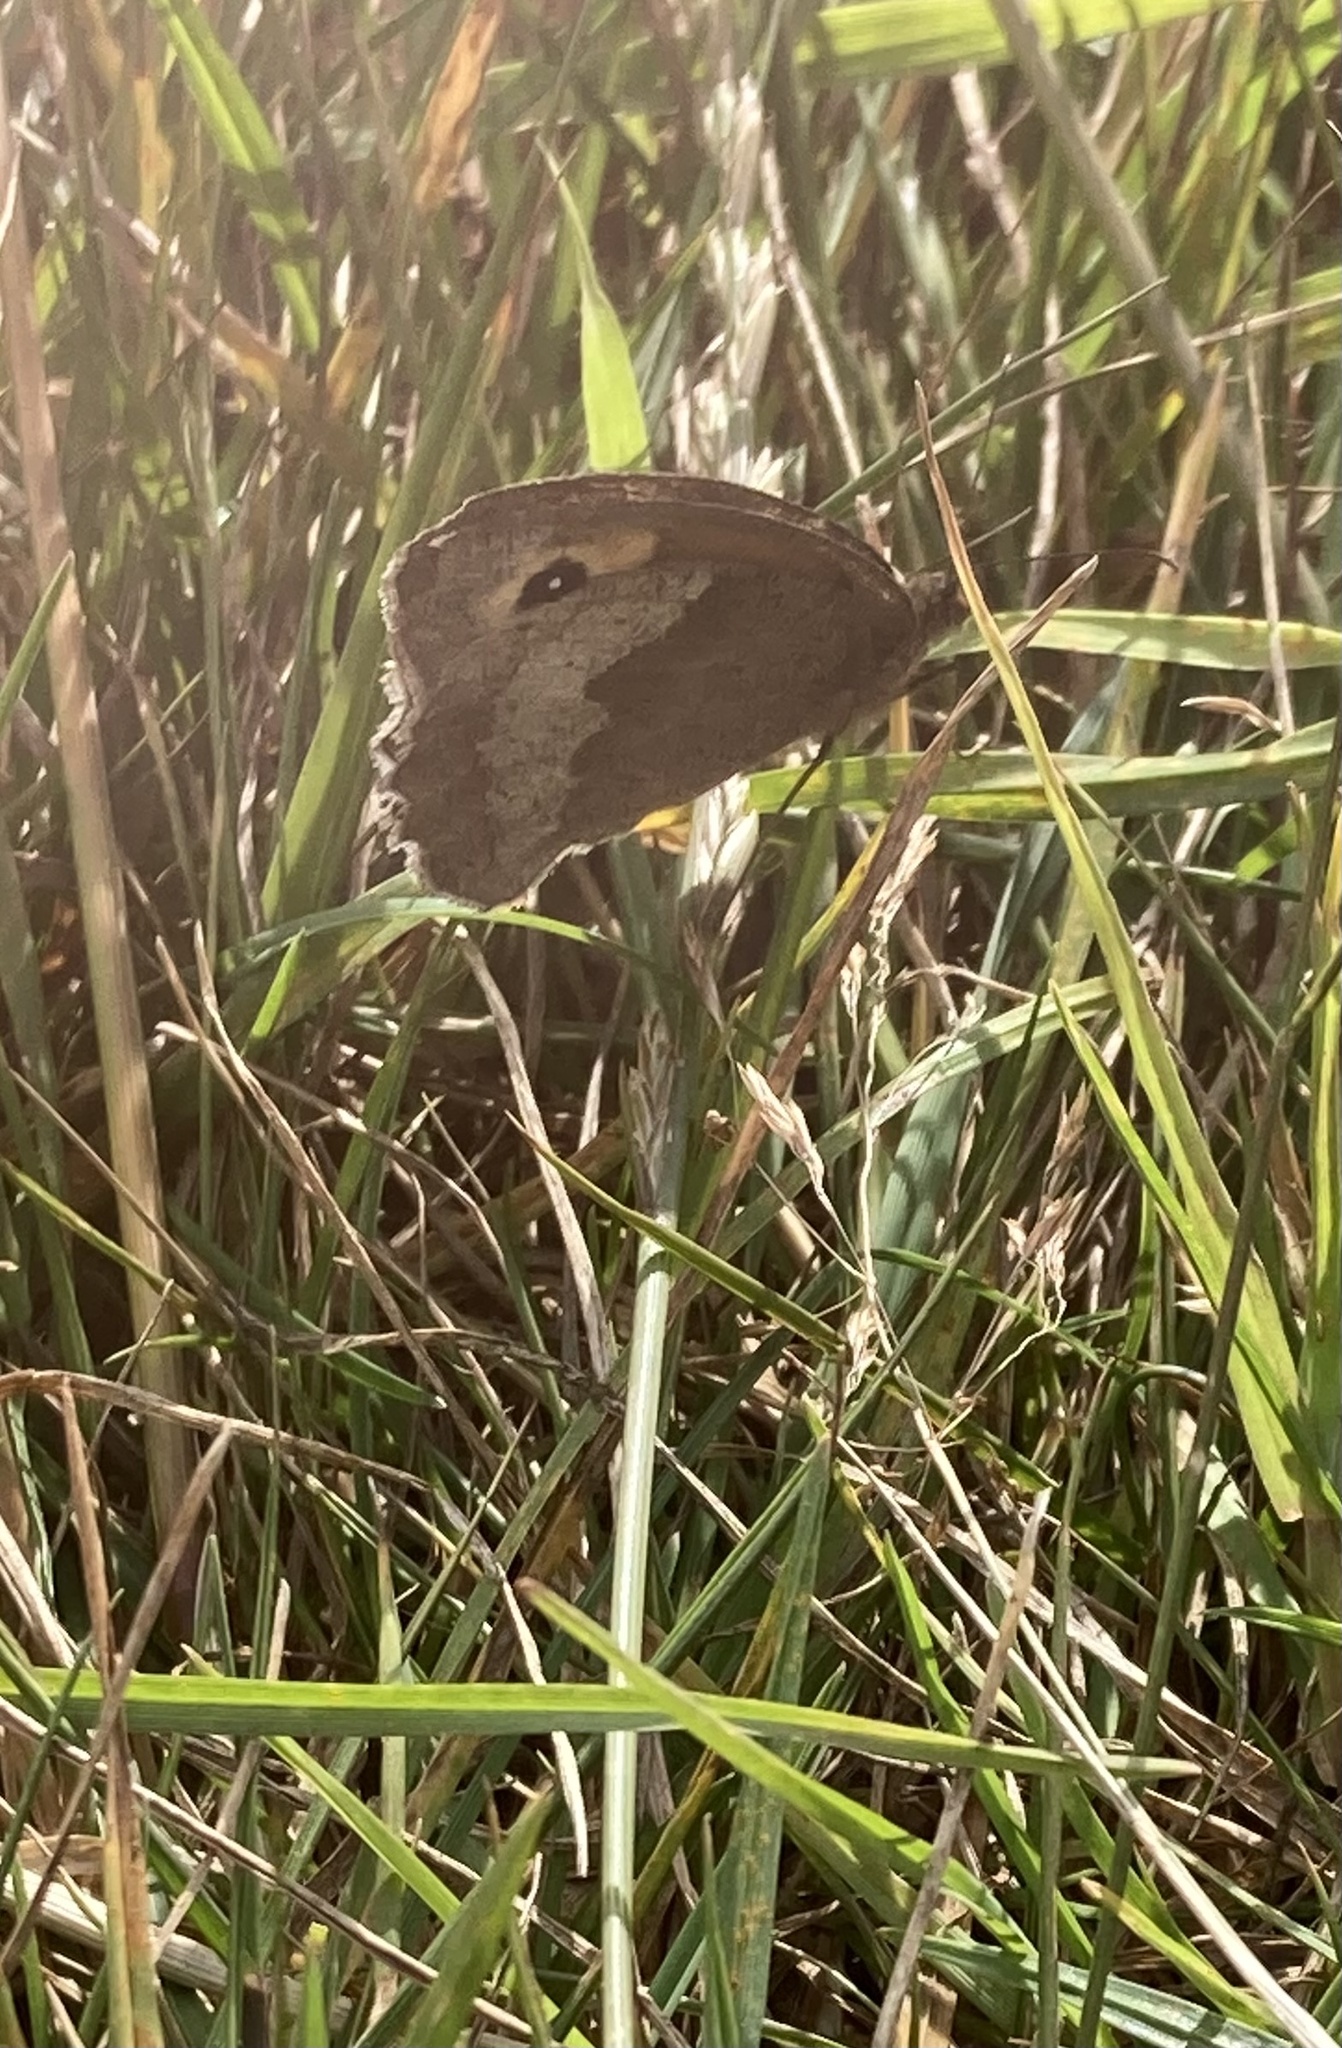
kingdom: Animalia
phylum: Arthropoda
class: Insecta
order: Lepidoptera
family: Nymphalidae
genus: Maniola
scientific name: Maniola jurtina
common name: Meadow brown
